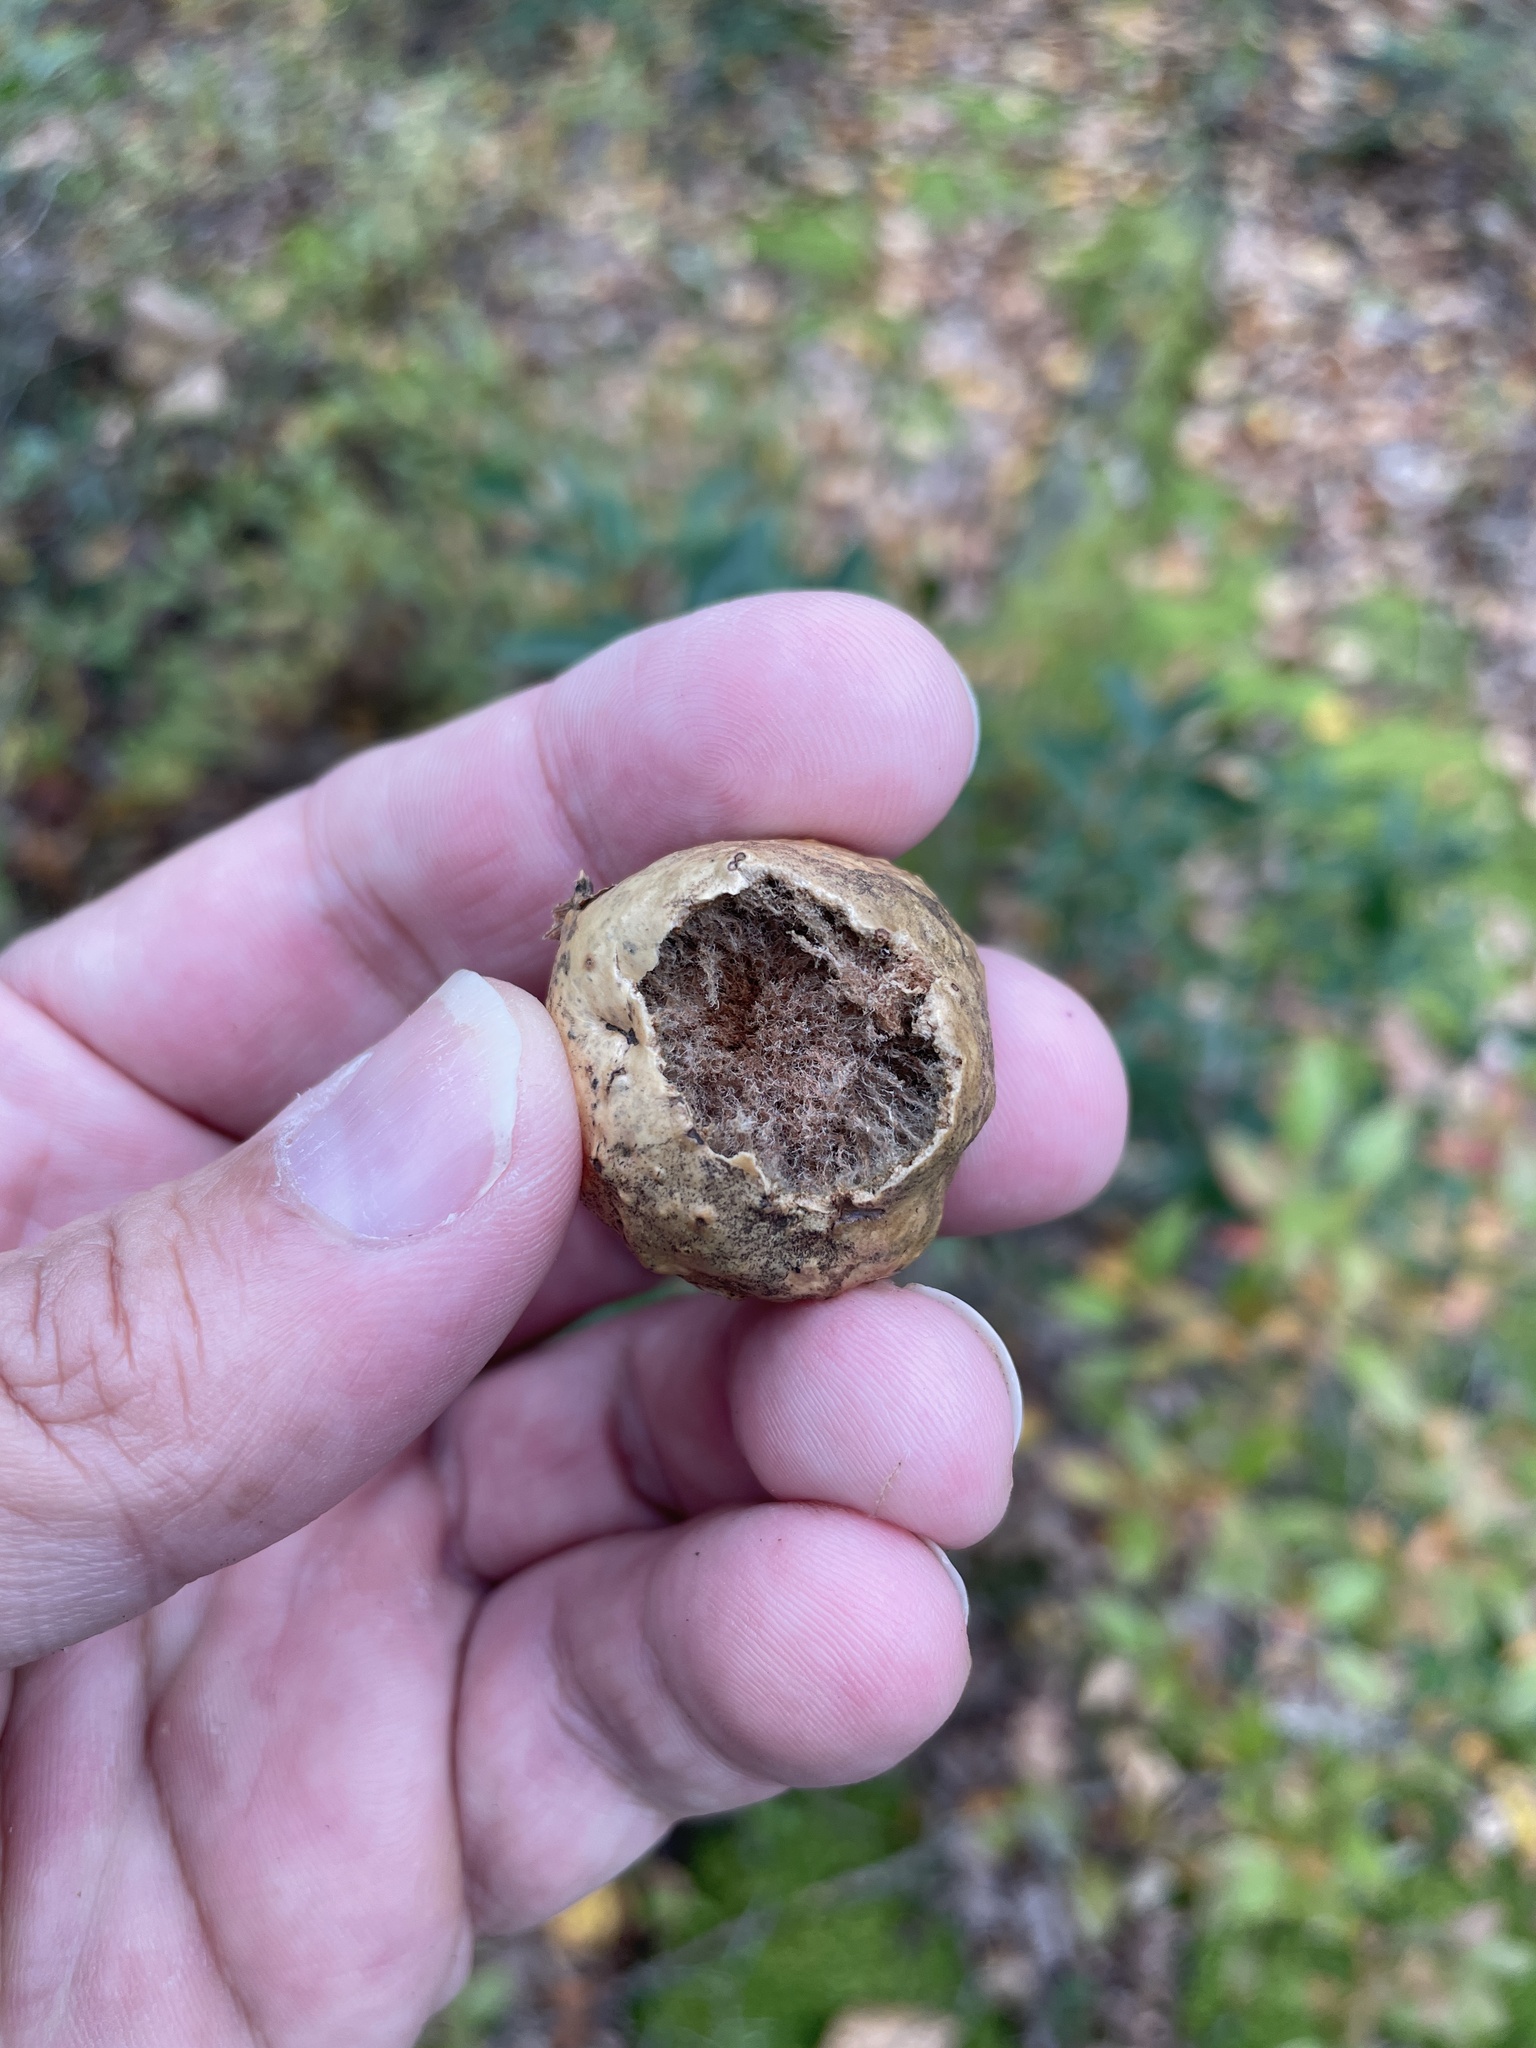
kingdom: Animalia
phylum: Arthropoda
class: Insecta
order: Hymenoptera
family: Cynipidae
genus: Amphibolips
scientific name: Amphibolips
